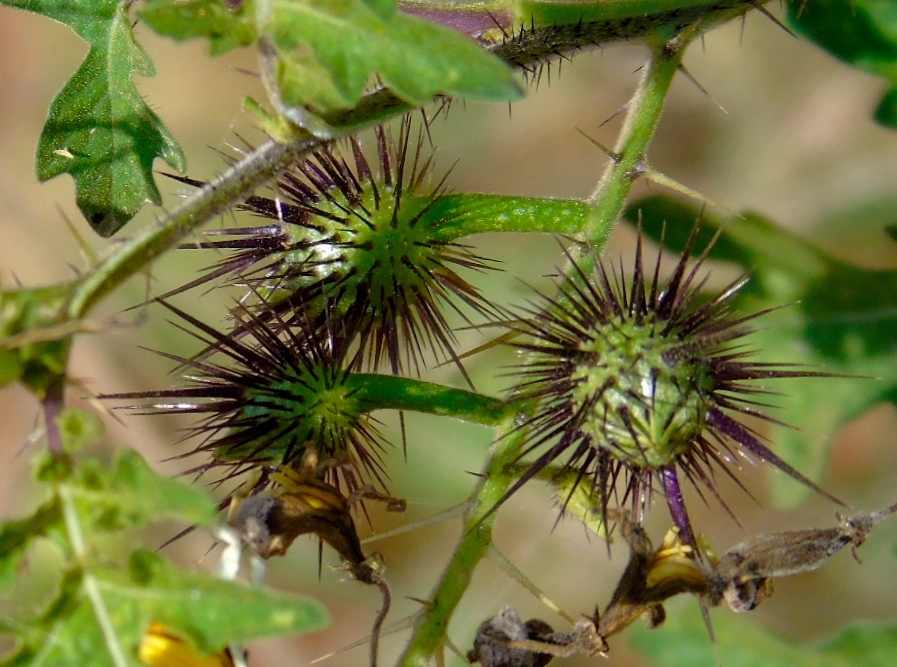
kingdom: Plantae
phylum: Tracheophyta
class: Magnoliopsida
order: Solanales
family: Solanaceae
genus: Solanum
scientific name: Solanum grayi
